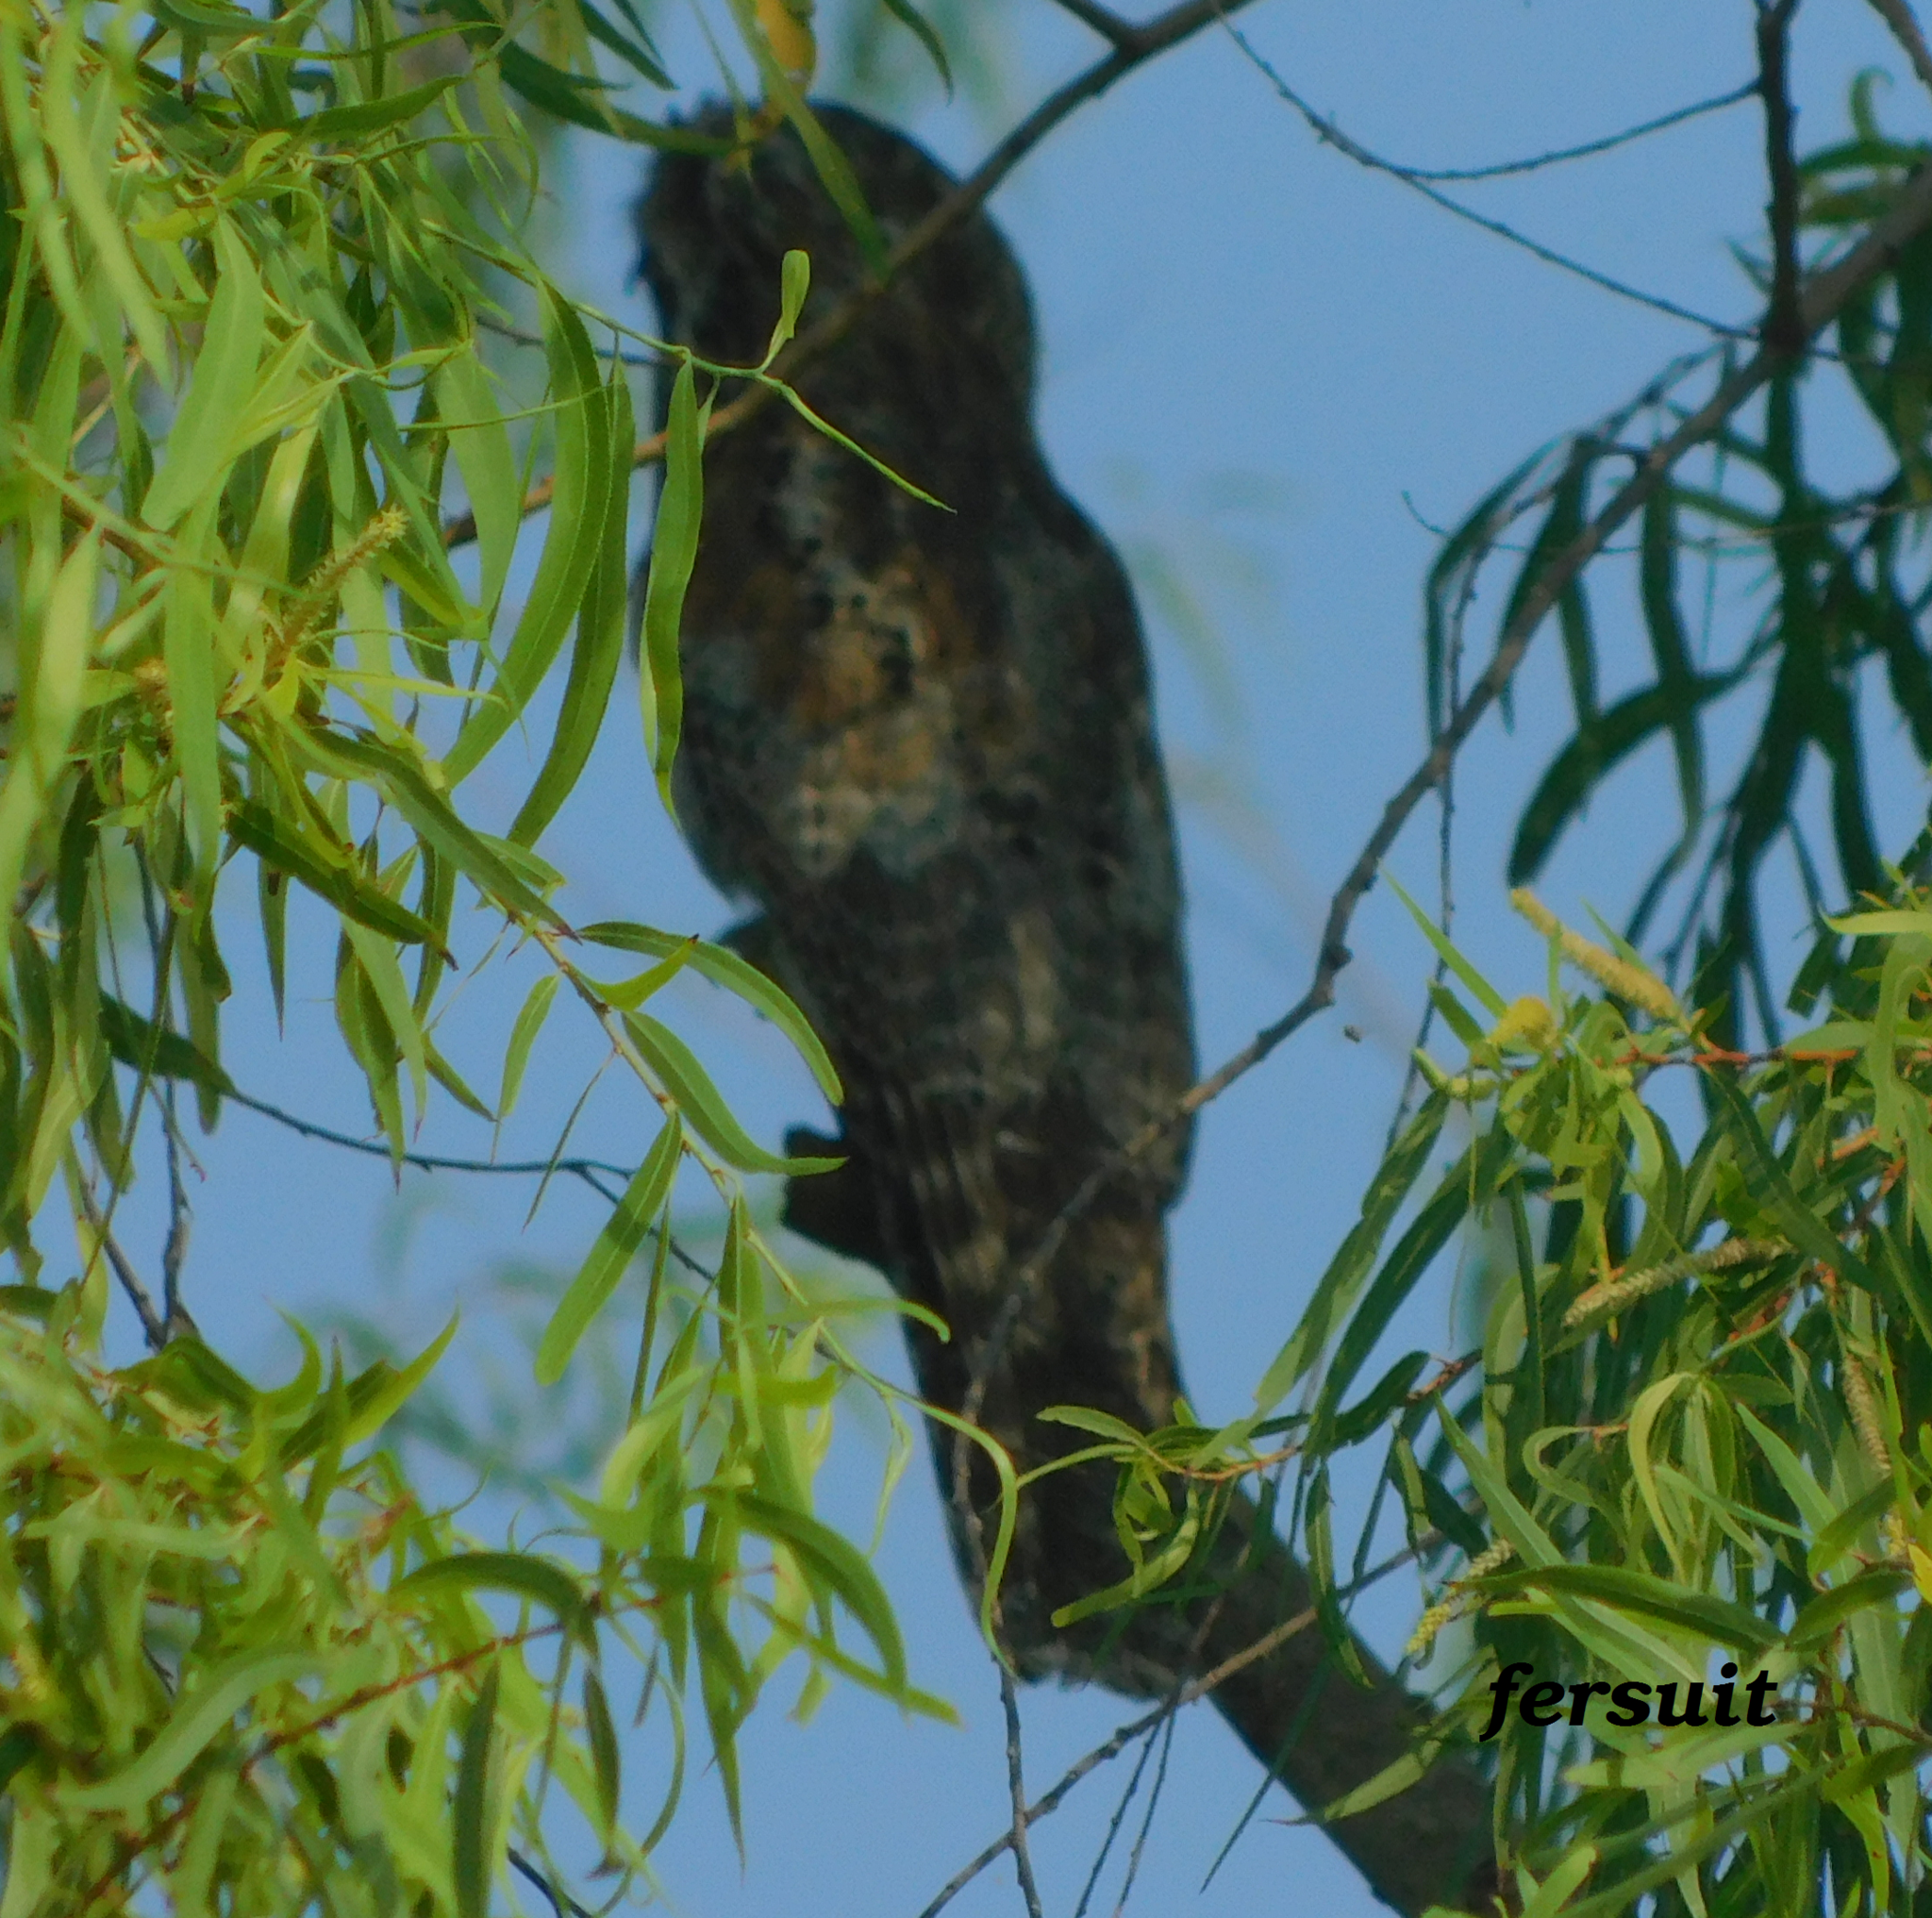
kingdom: Animalia
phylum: Chordata
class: Aves
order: Nyctibiiformes
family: Nyctibiidae
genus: Nyctibius
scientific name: Nyctibius jamaicensis
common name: Northern potoo
